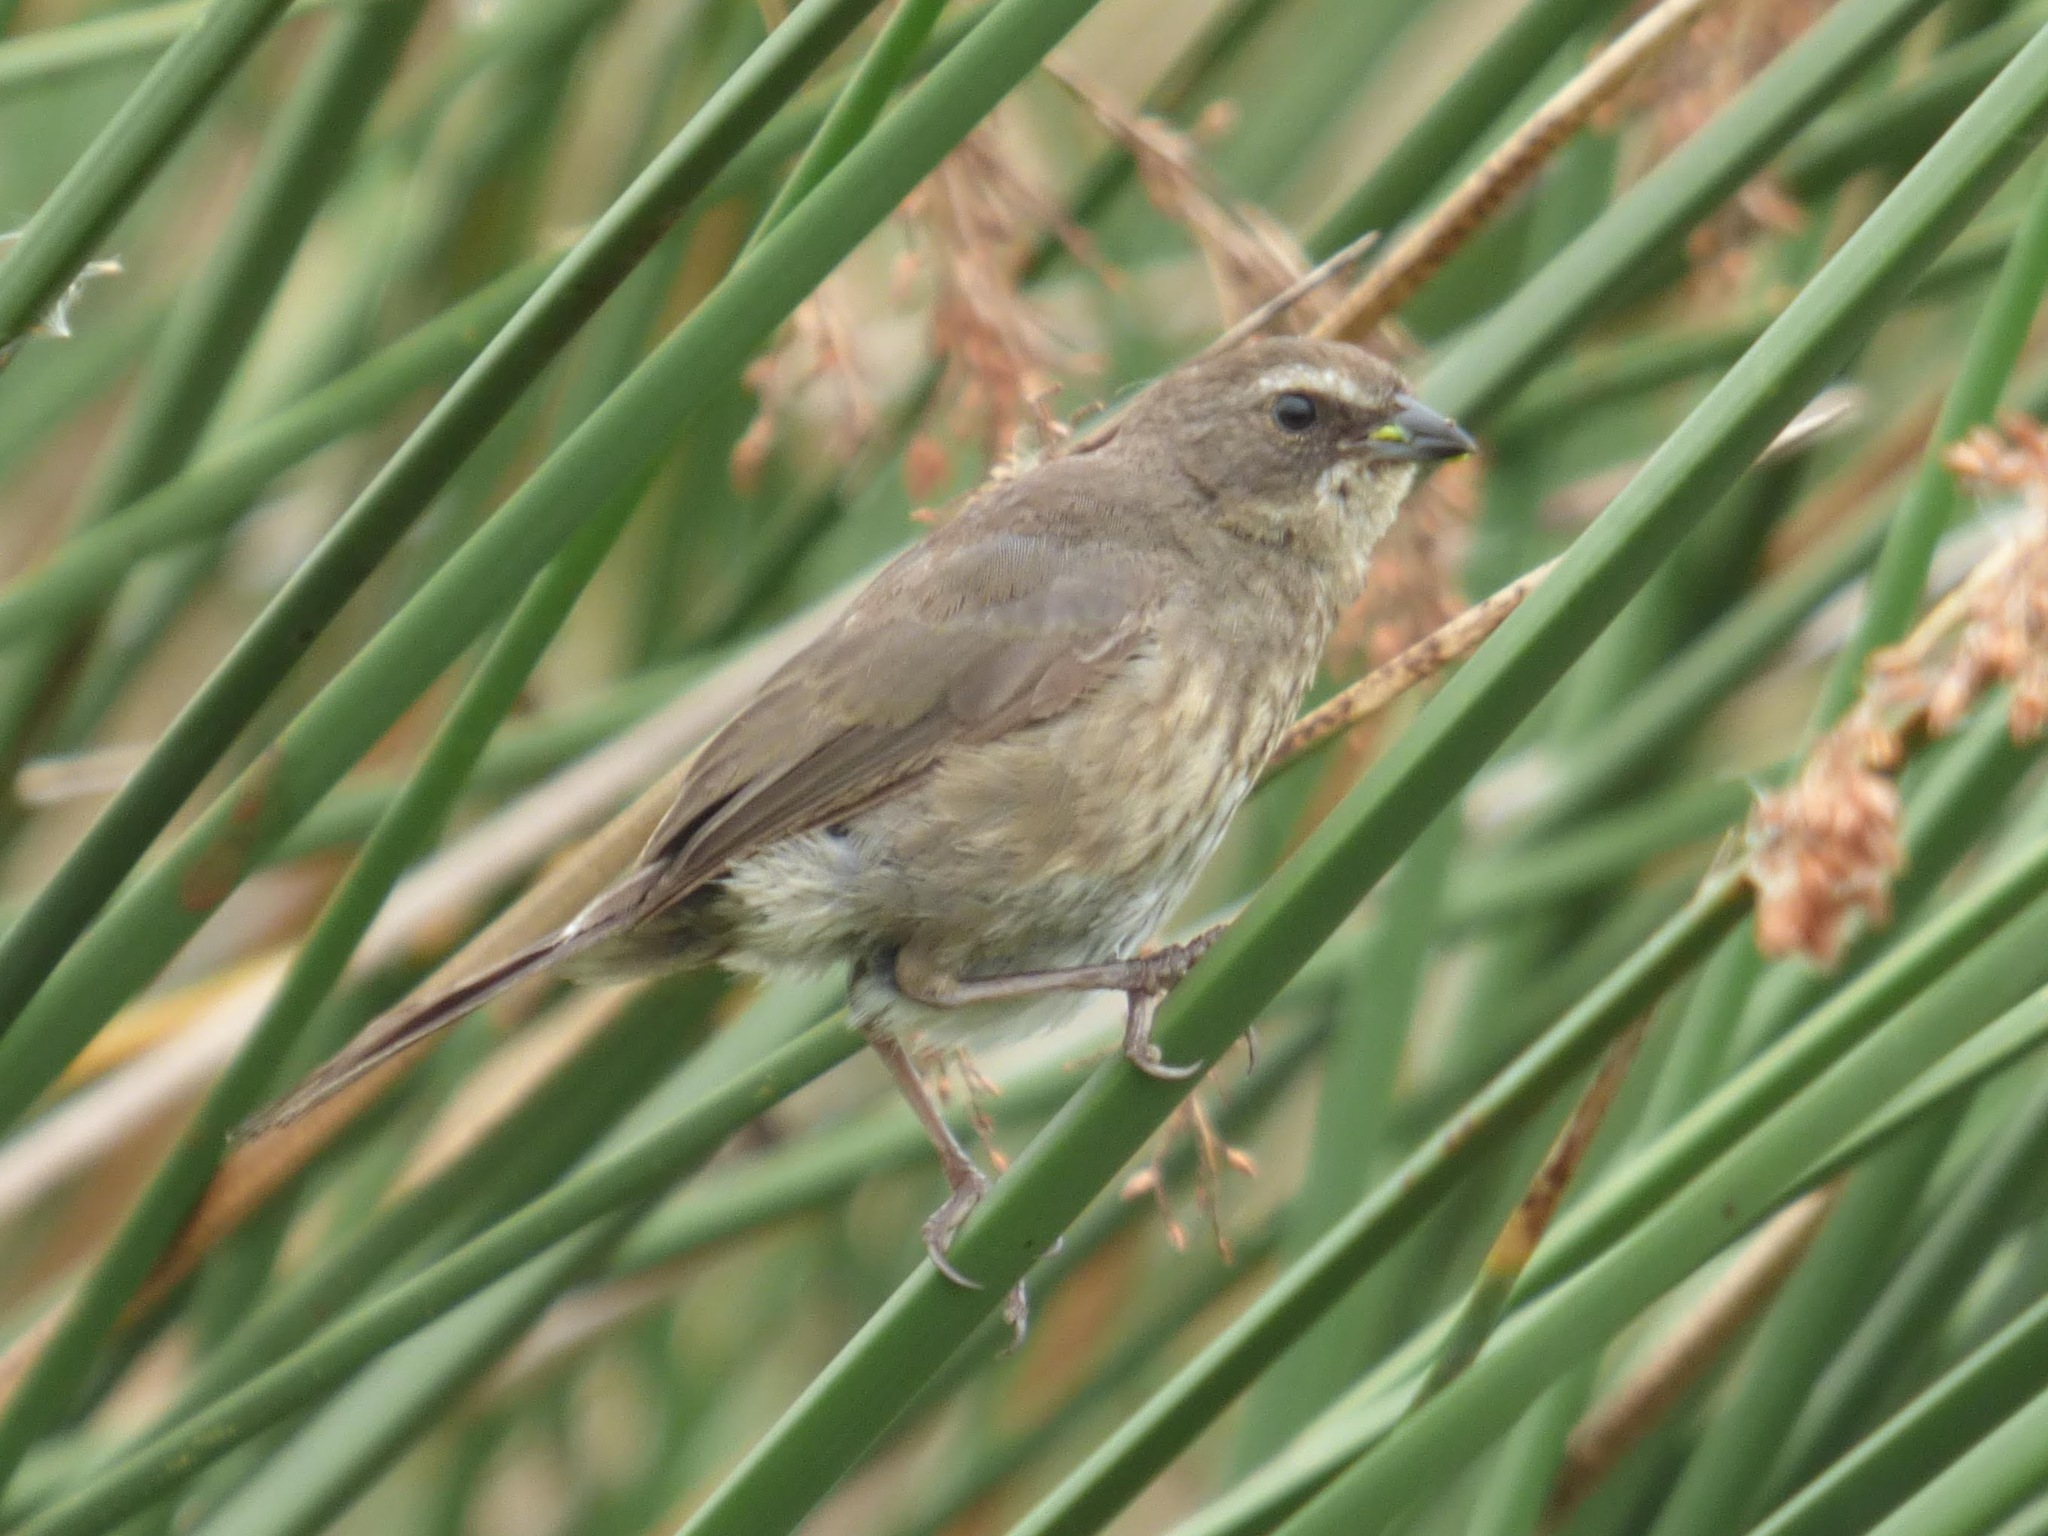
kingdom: Animalia
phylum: Chordata
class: Aves
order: Passeriformes
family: Thraupidae
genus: Poospiza
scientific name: Poospiza nigrorufa
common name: Black-and-rufous warbling finch
